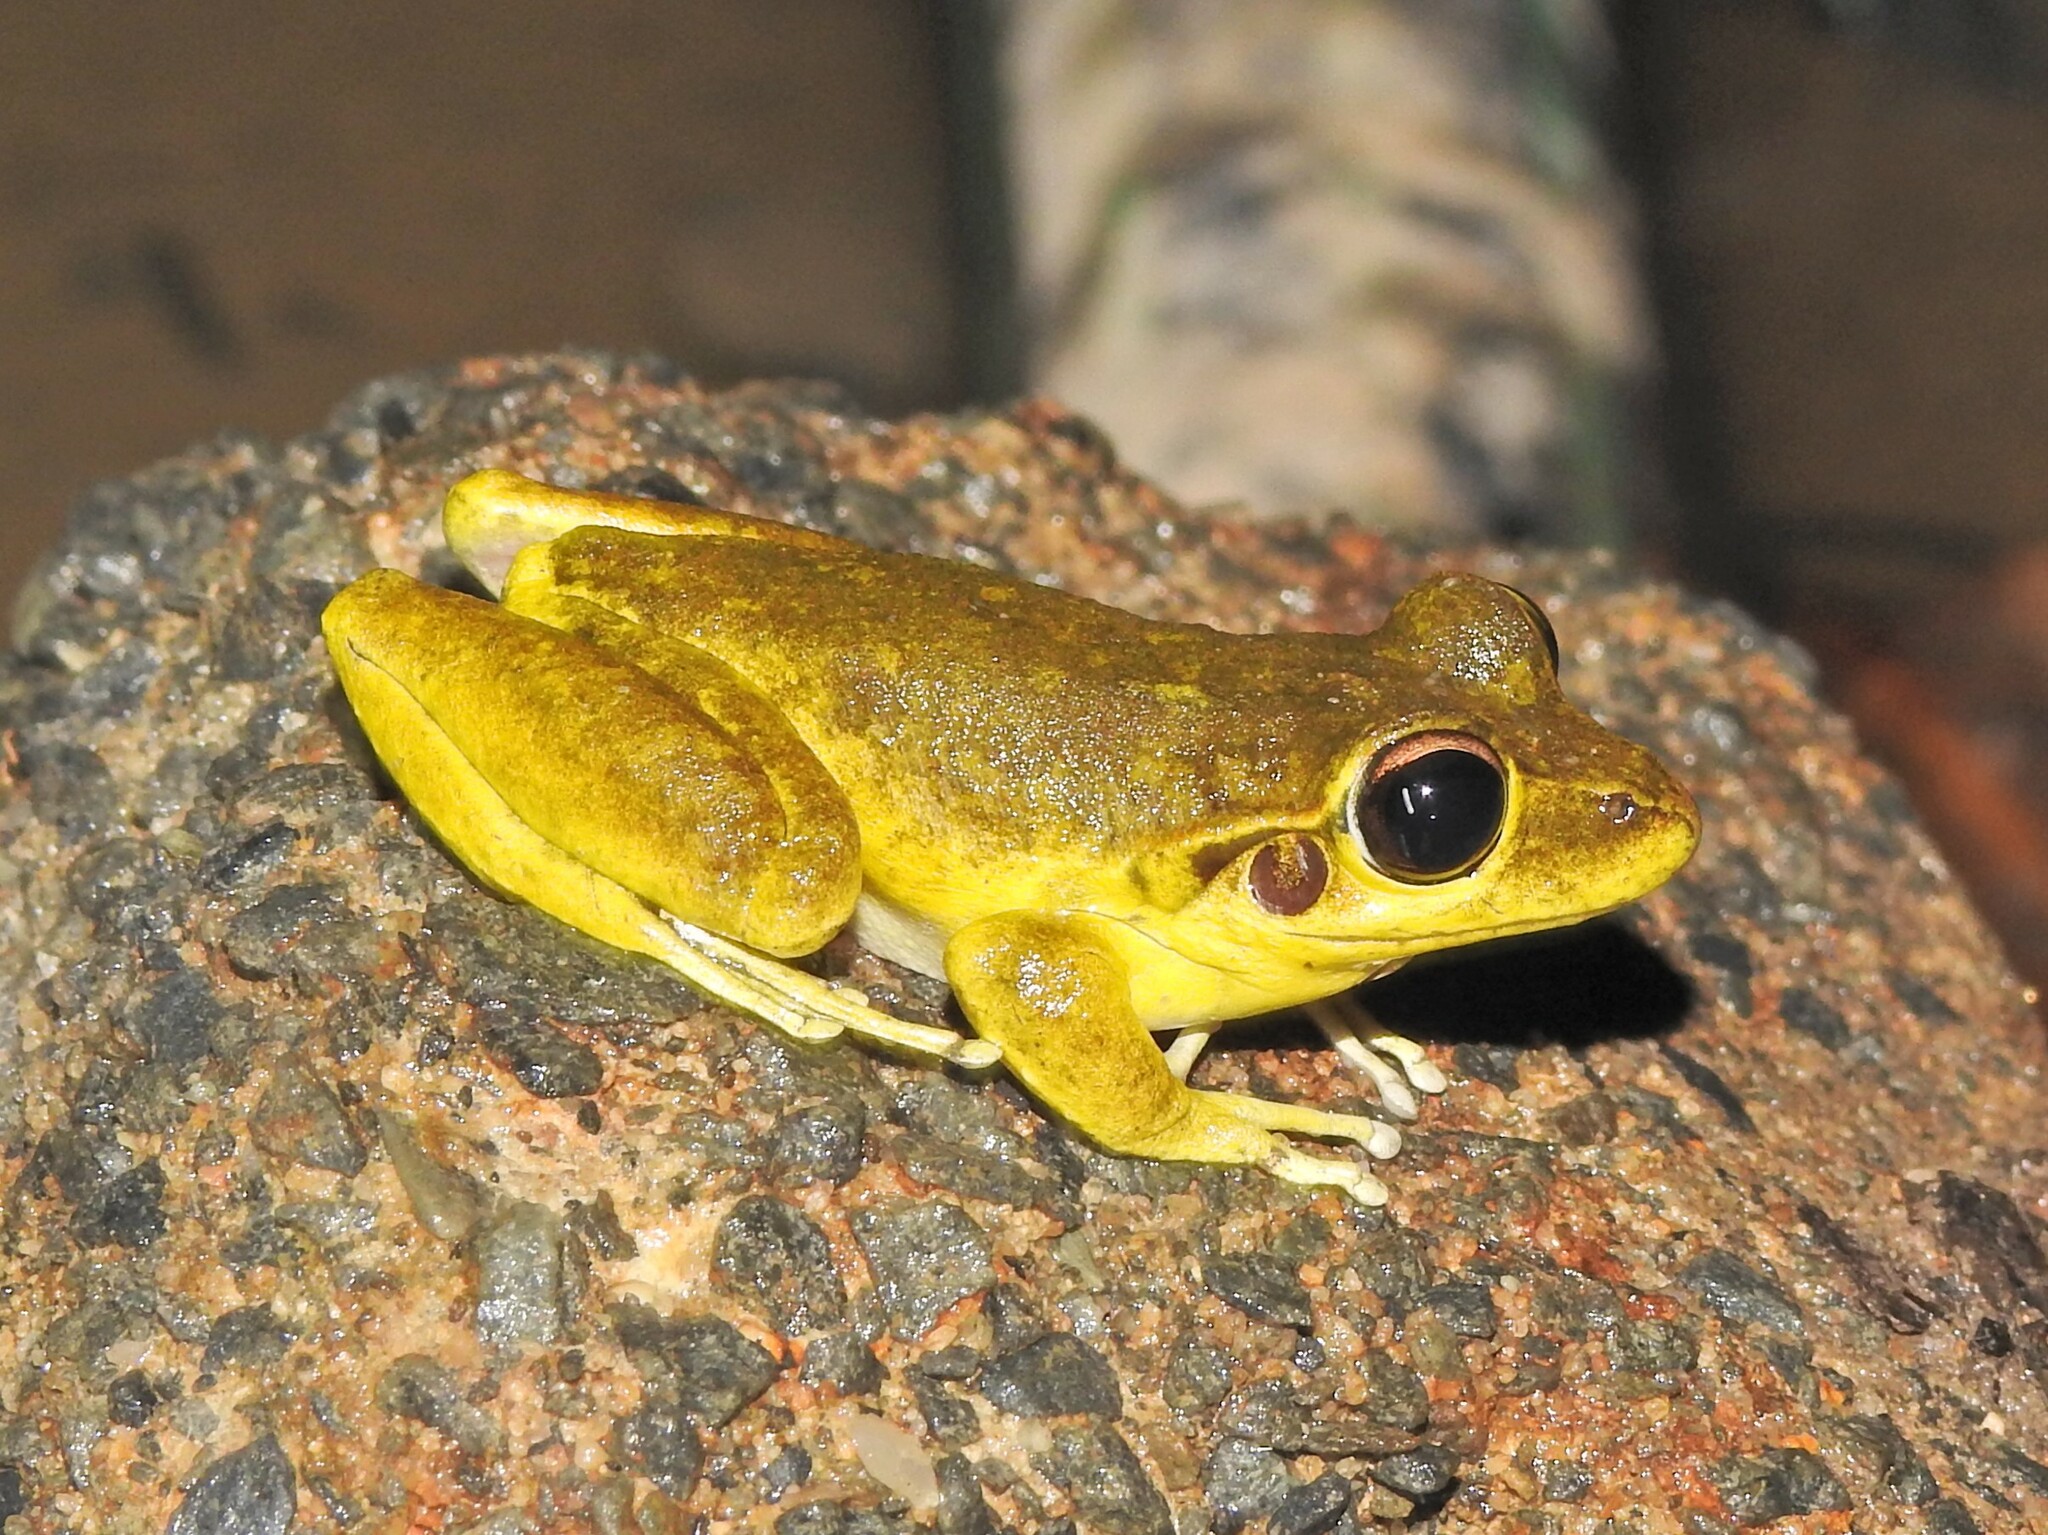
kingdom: Animalia
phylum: Chordata
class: Amphibia
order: Anura
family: Pelodryadidae
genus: Ranoidea
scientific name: Ranoidea wilcoxii
